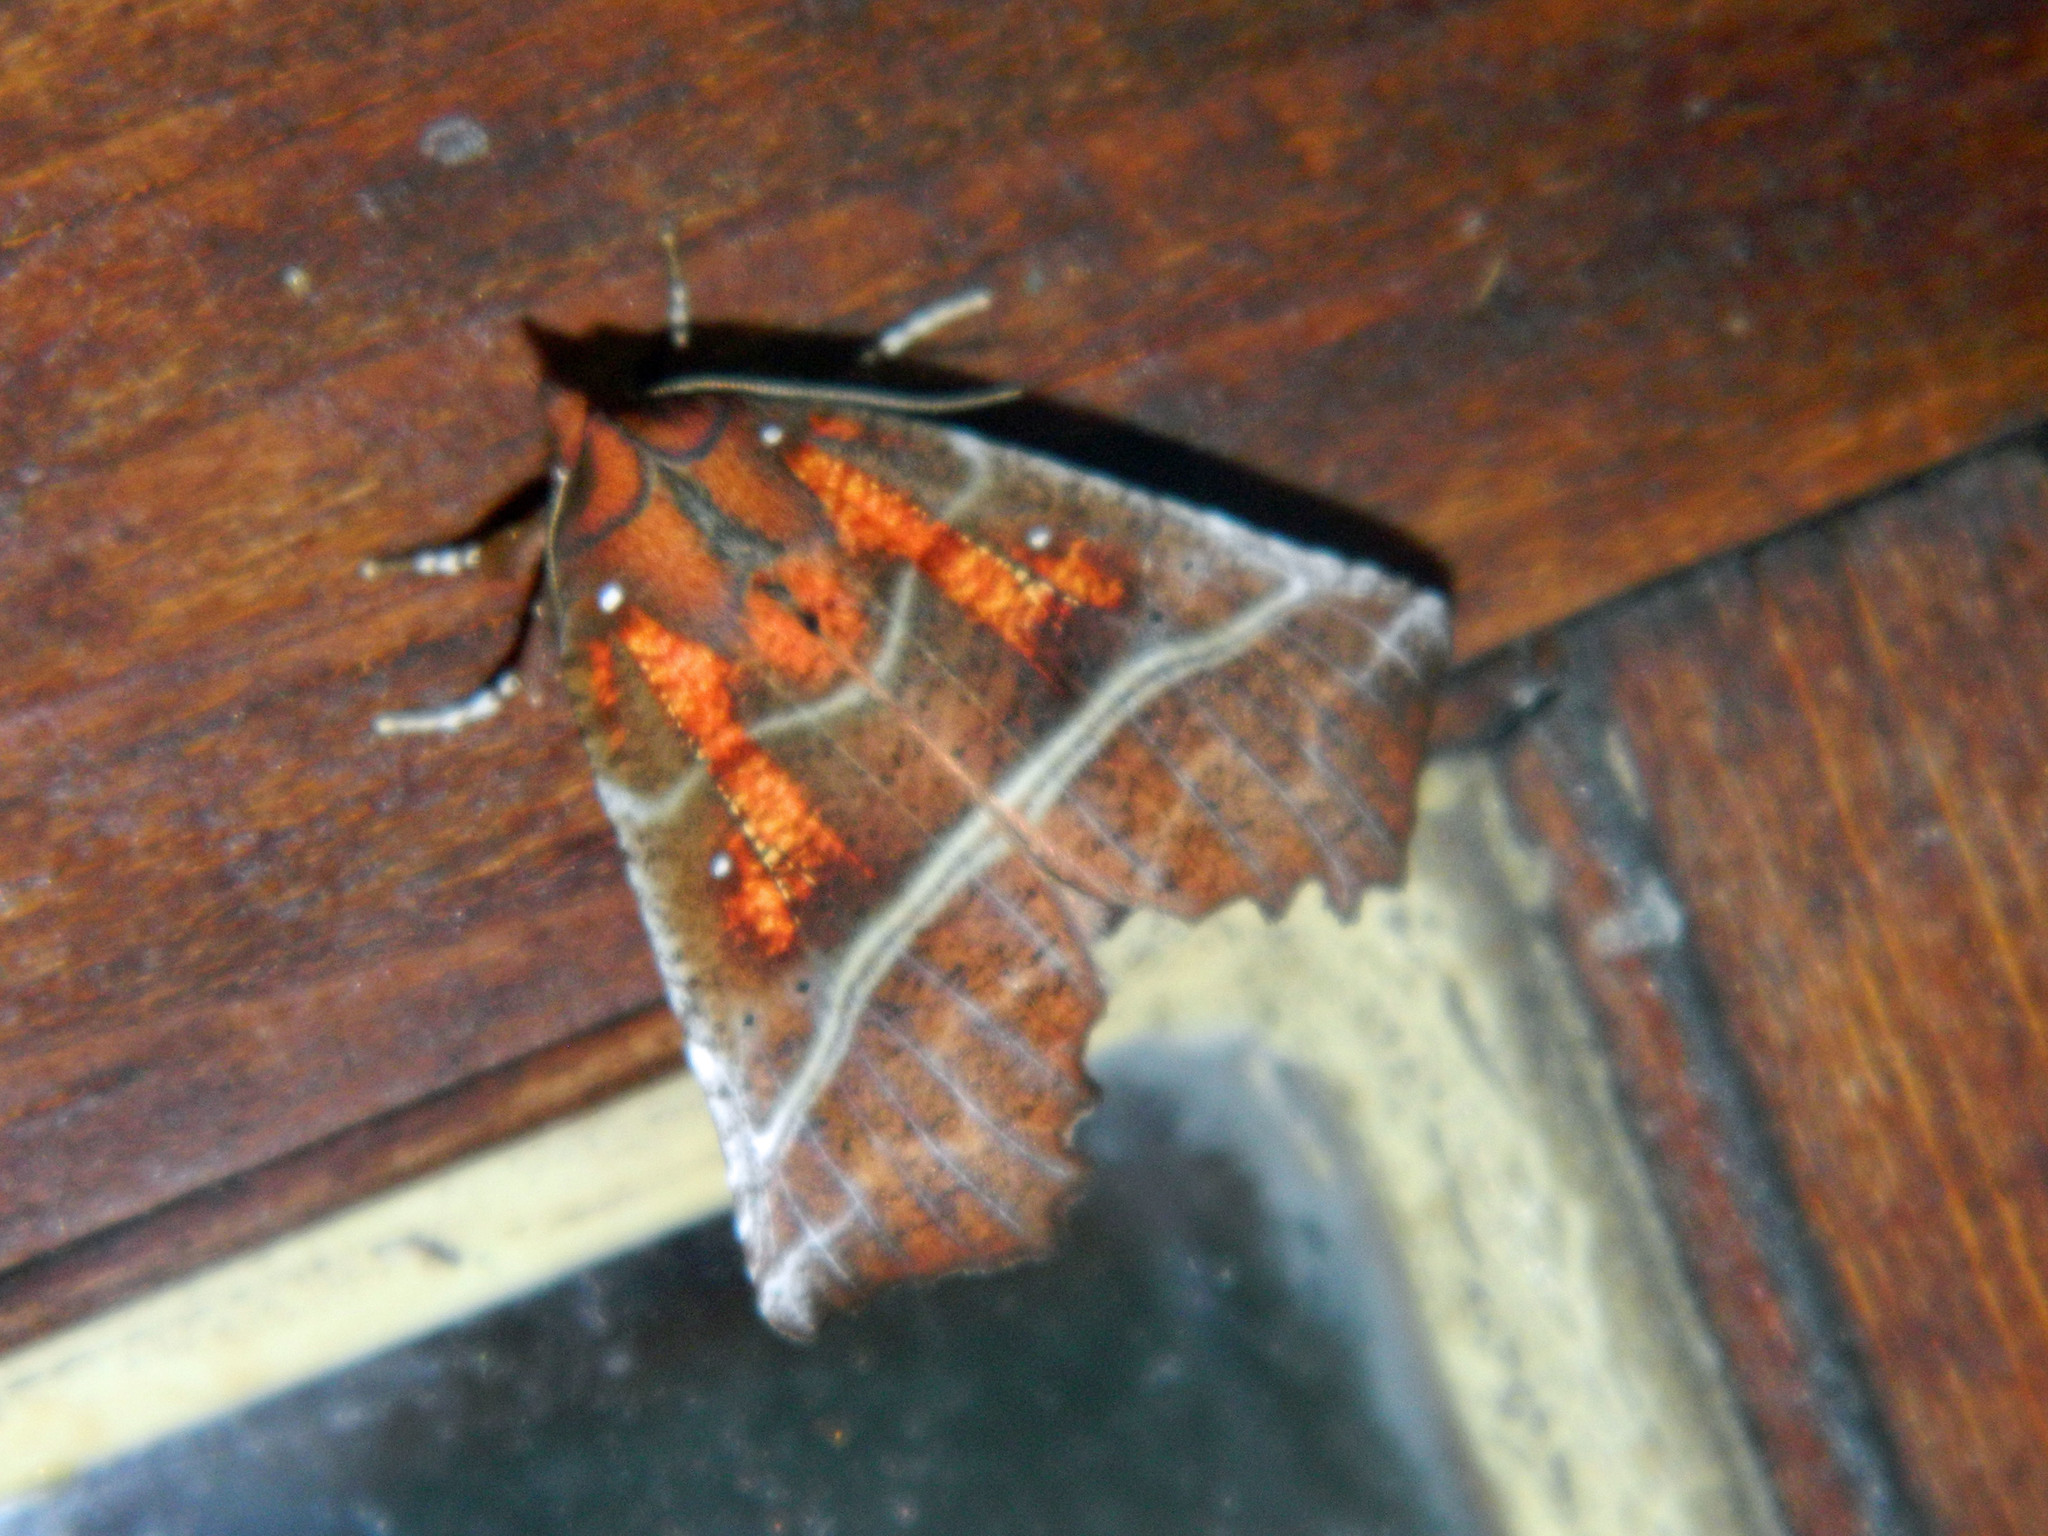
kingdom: Animalia
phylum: Arthropoda
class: Insecta
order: Lepidoptera
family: Erebidae
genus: Scoliopteryx
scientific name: Scoliopteryx libatrix
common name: Herald
